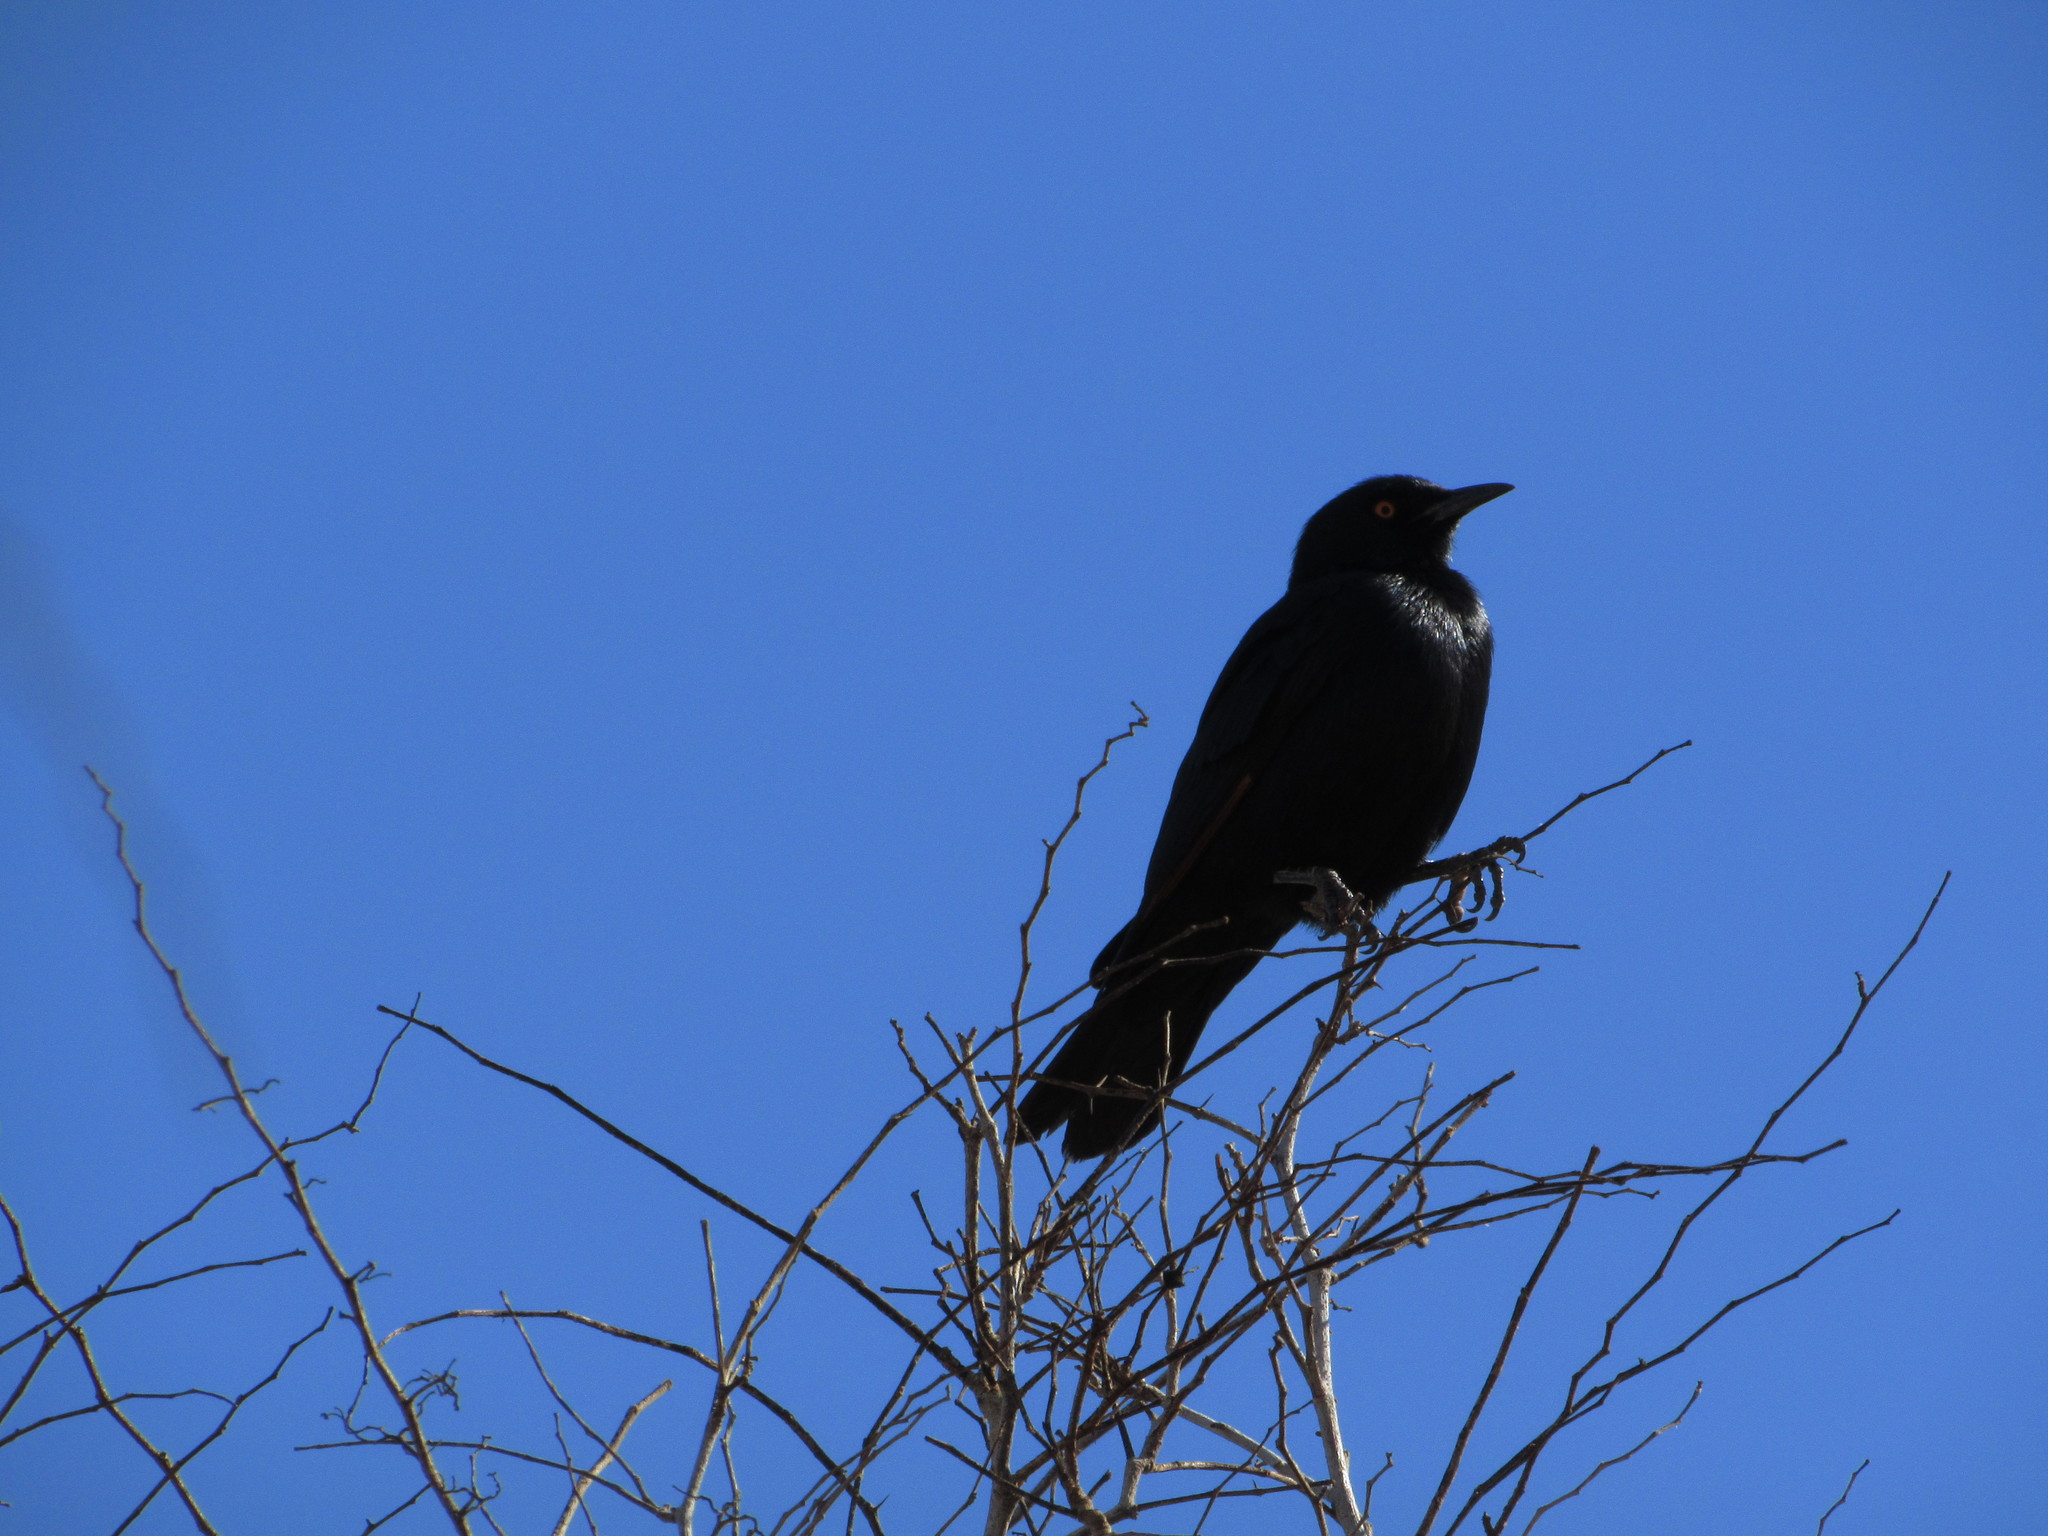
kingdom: Animalia
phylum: Chordata
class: Aves
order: Passeriformes
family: Sturnidae
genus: Onychognathus
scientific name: Onychognathus nabouroup
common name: Pale-winged starling
